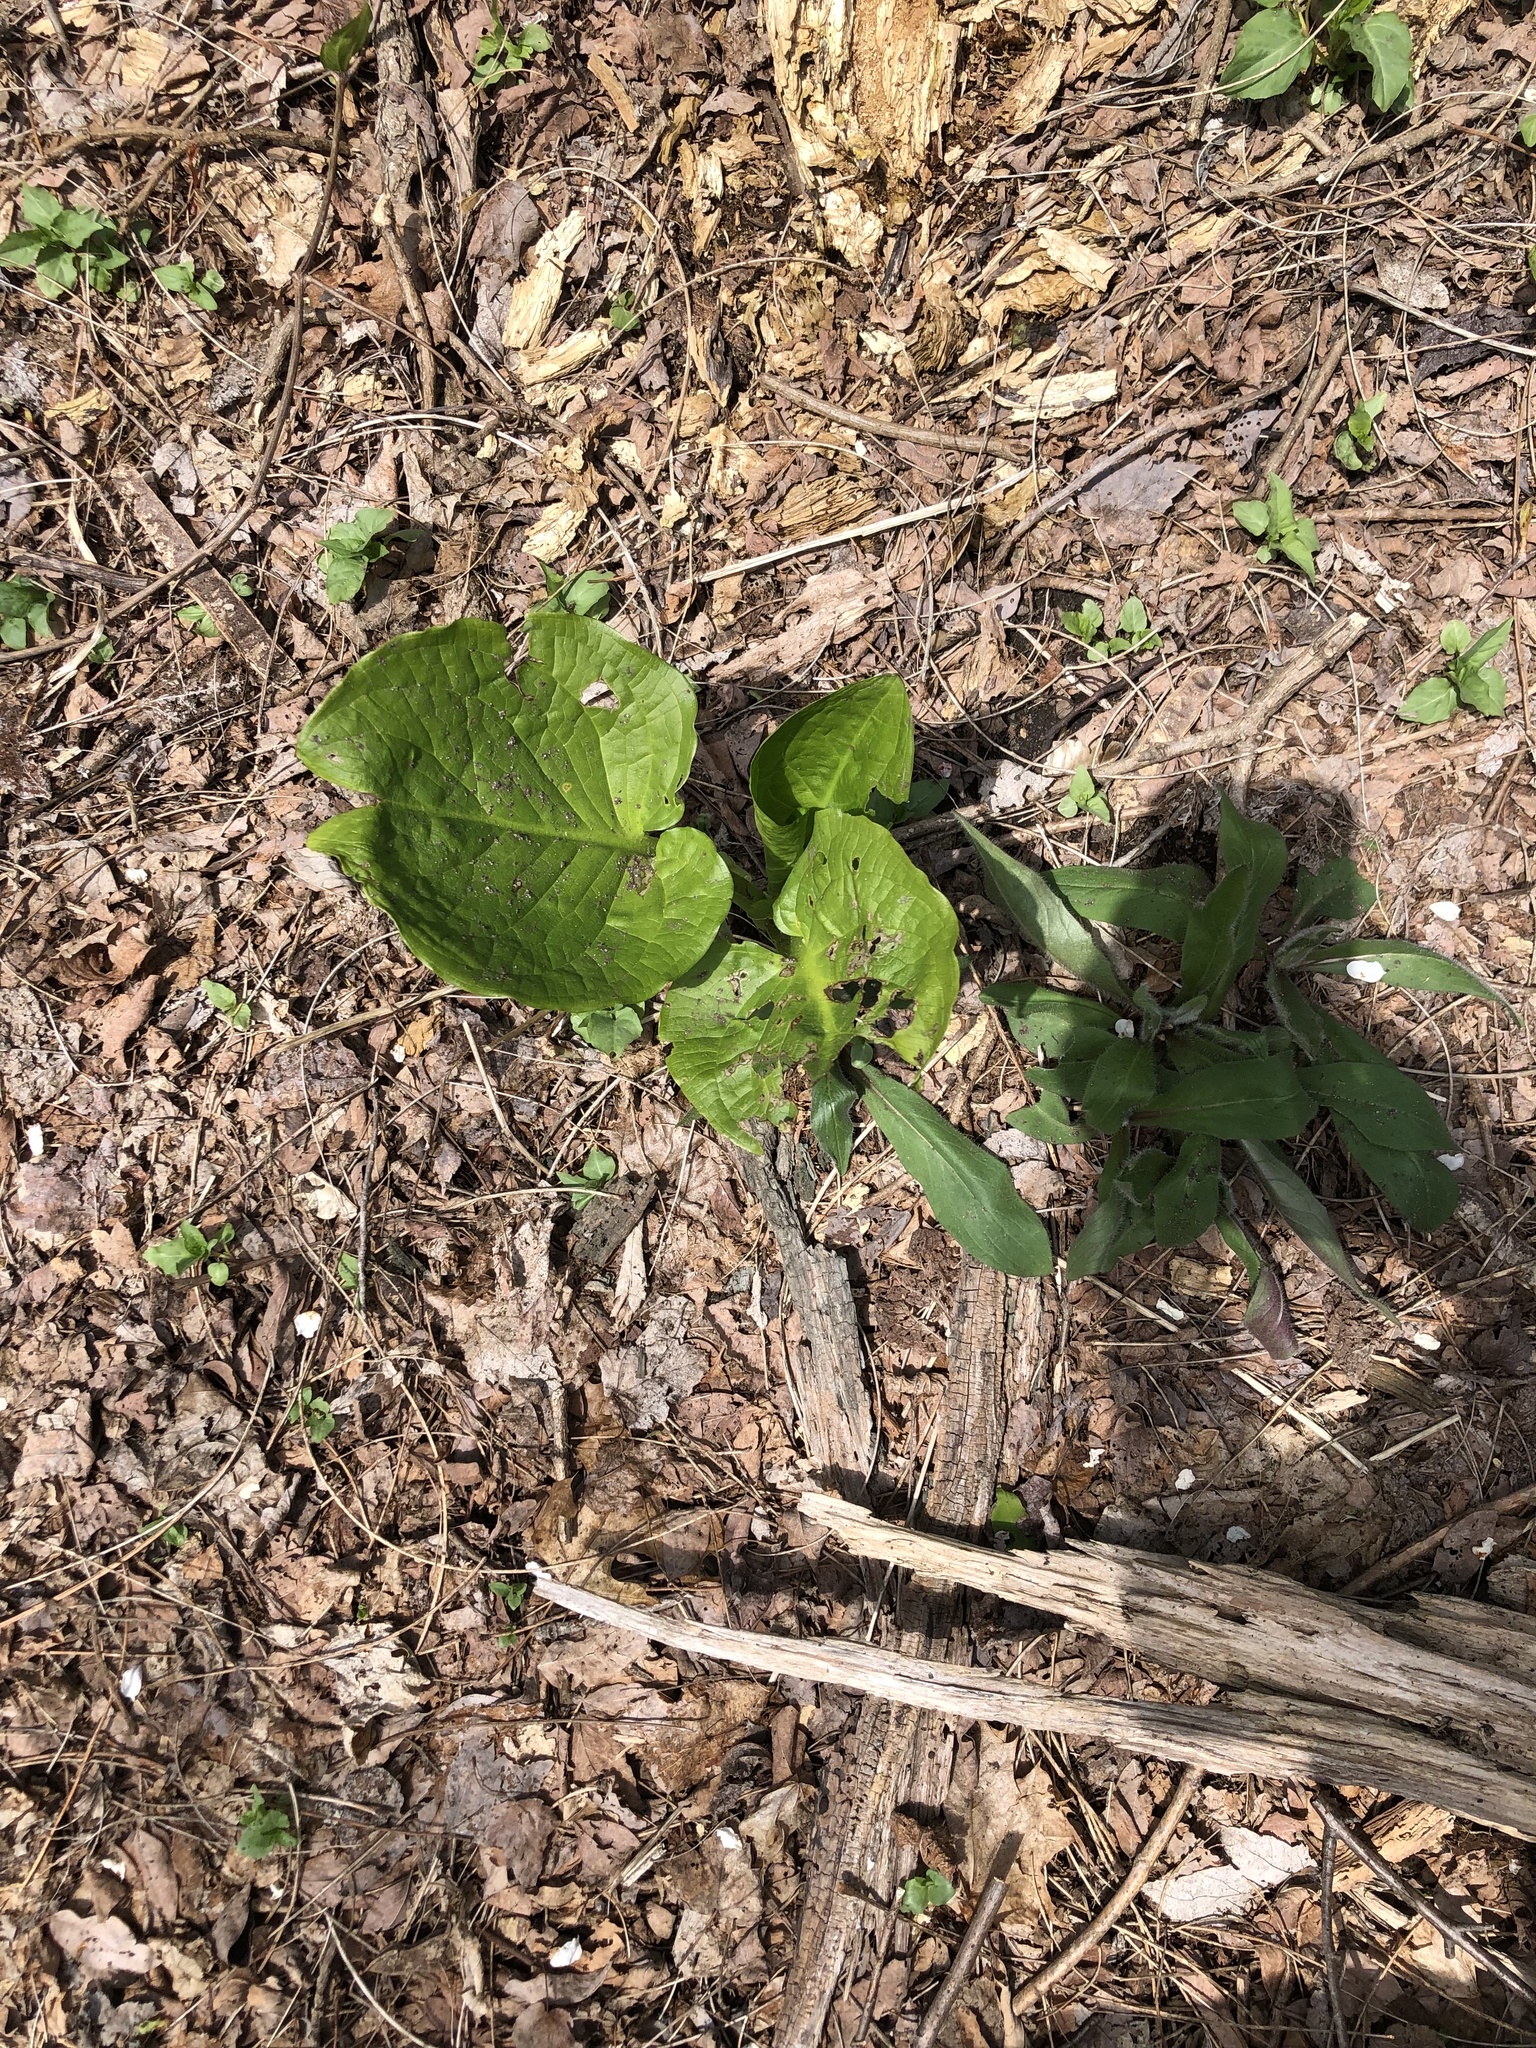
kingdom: Plantae
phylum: Tracheophyta
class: Liliopsida
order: Alismatales
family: Araceae
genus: Symplocarpus
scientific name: Symplocarpus foetidus
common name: Eastern skunk cabbage
